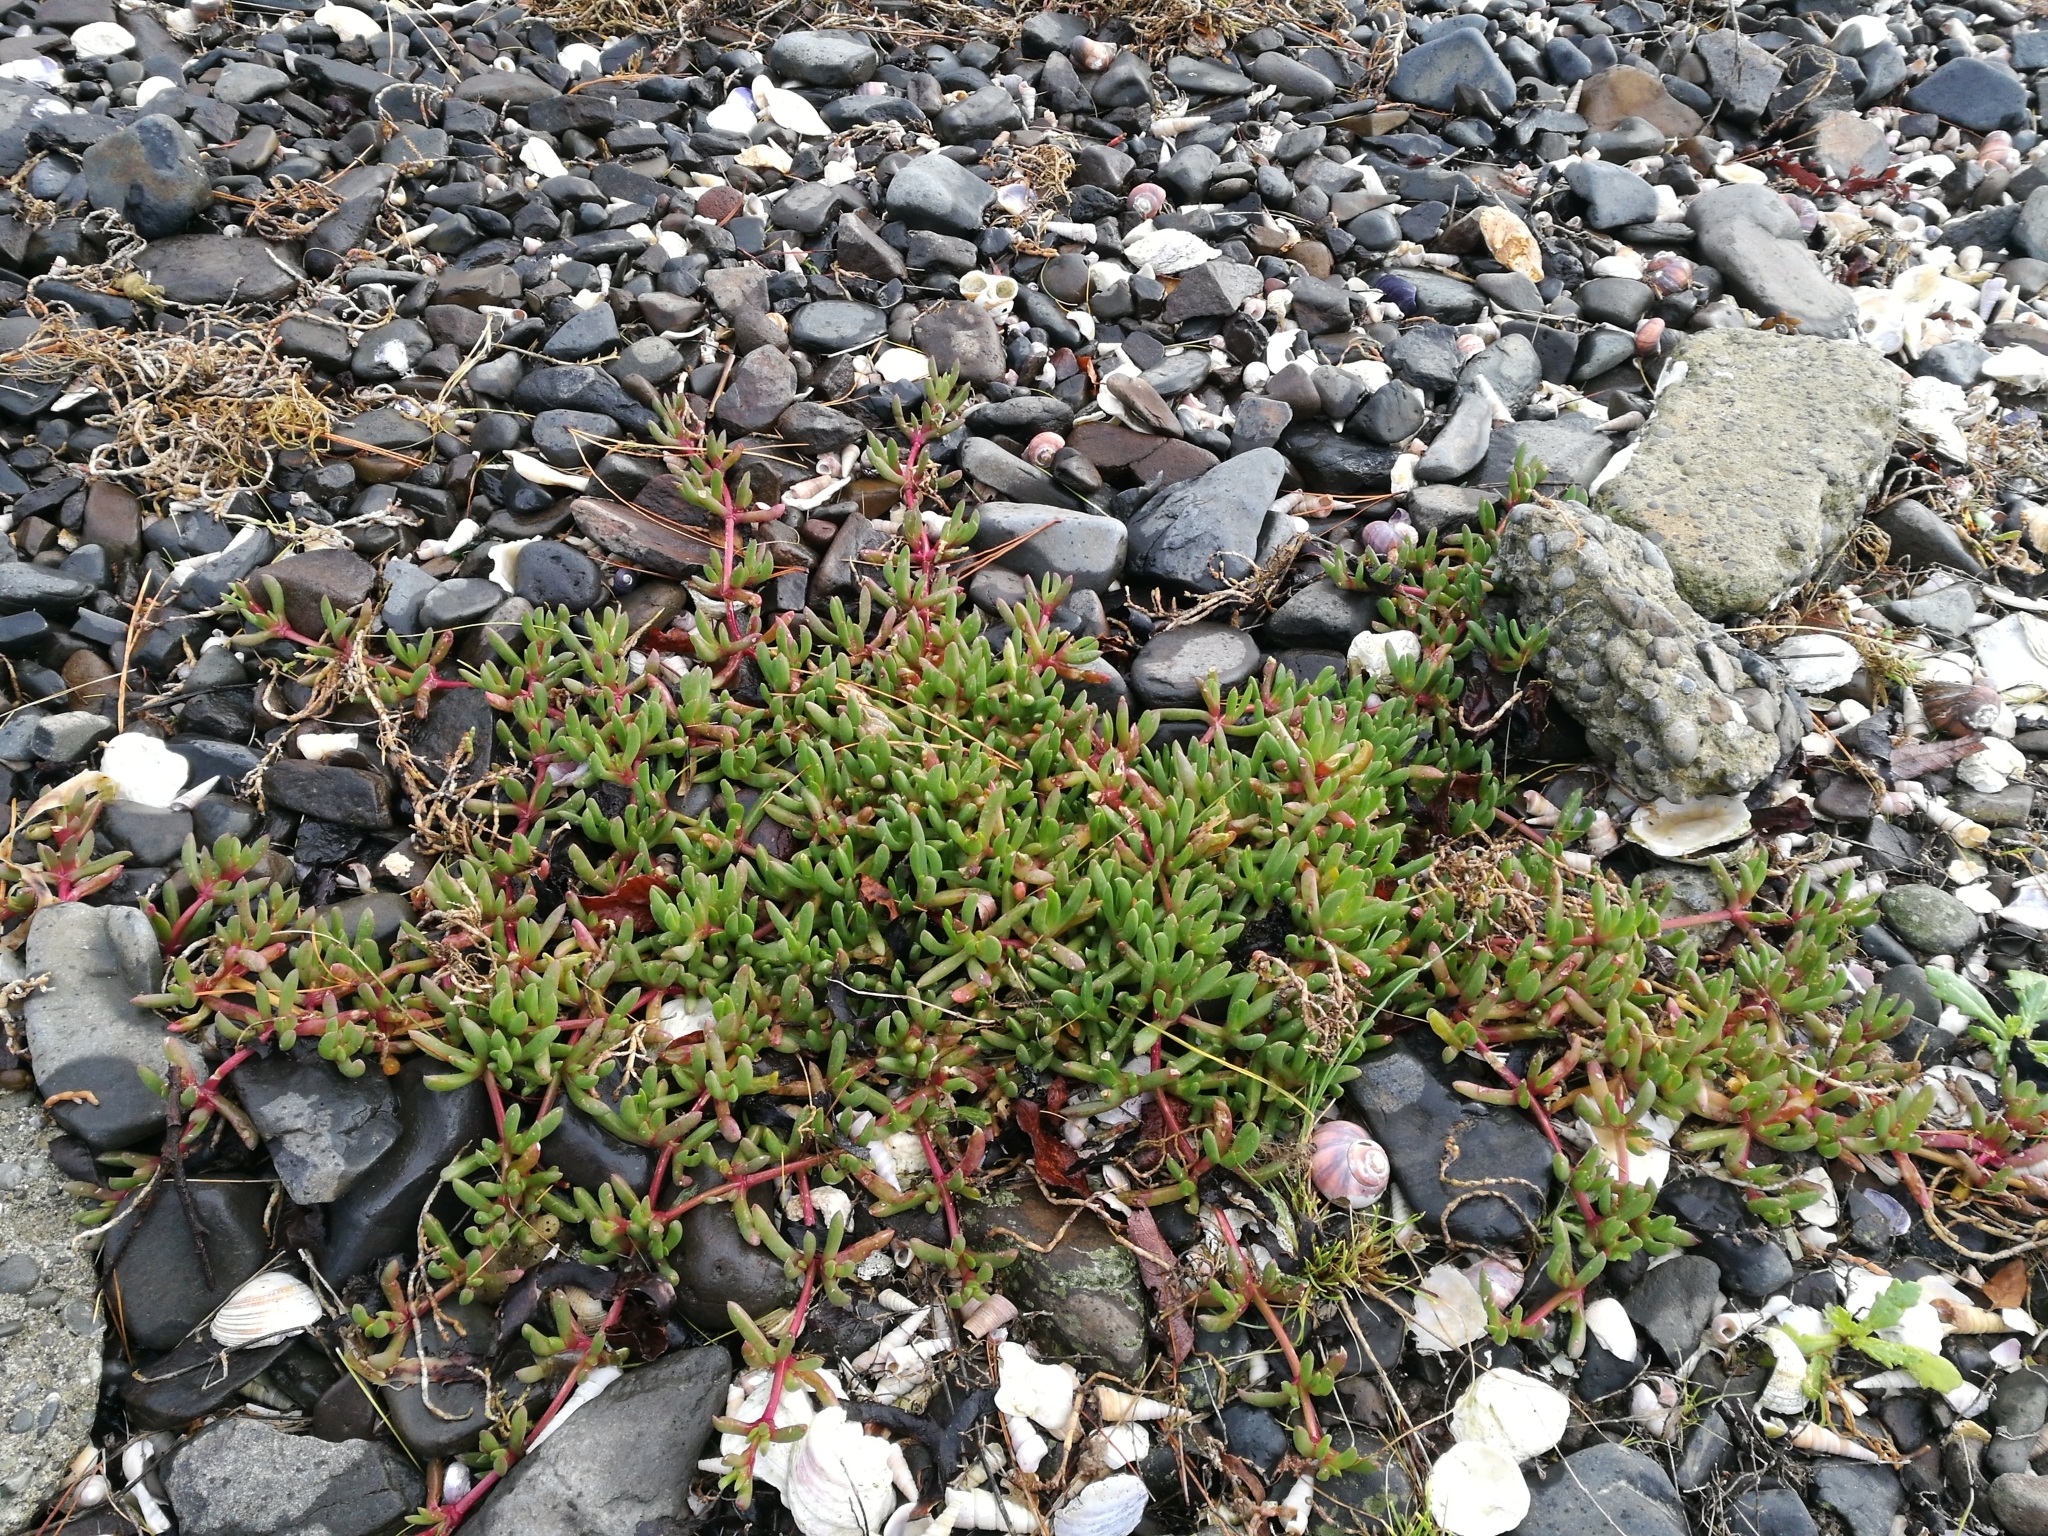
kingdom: Plantae
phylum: Tracheophyta
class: Magnoliopsida
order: Caryophyllales
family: Aizoaceae
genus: Disphyma
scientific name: Disphyma australe
